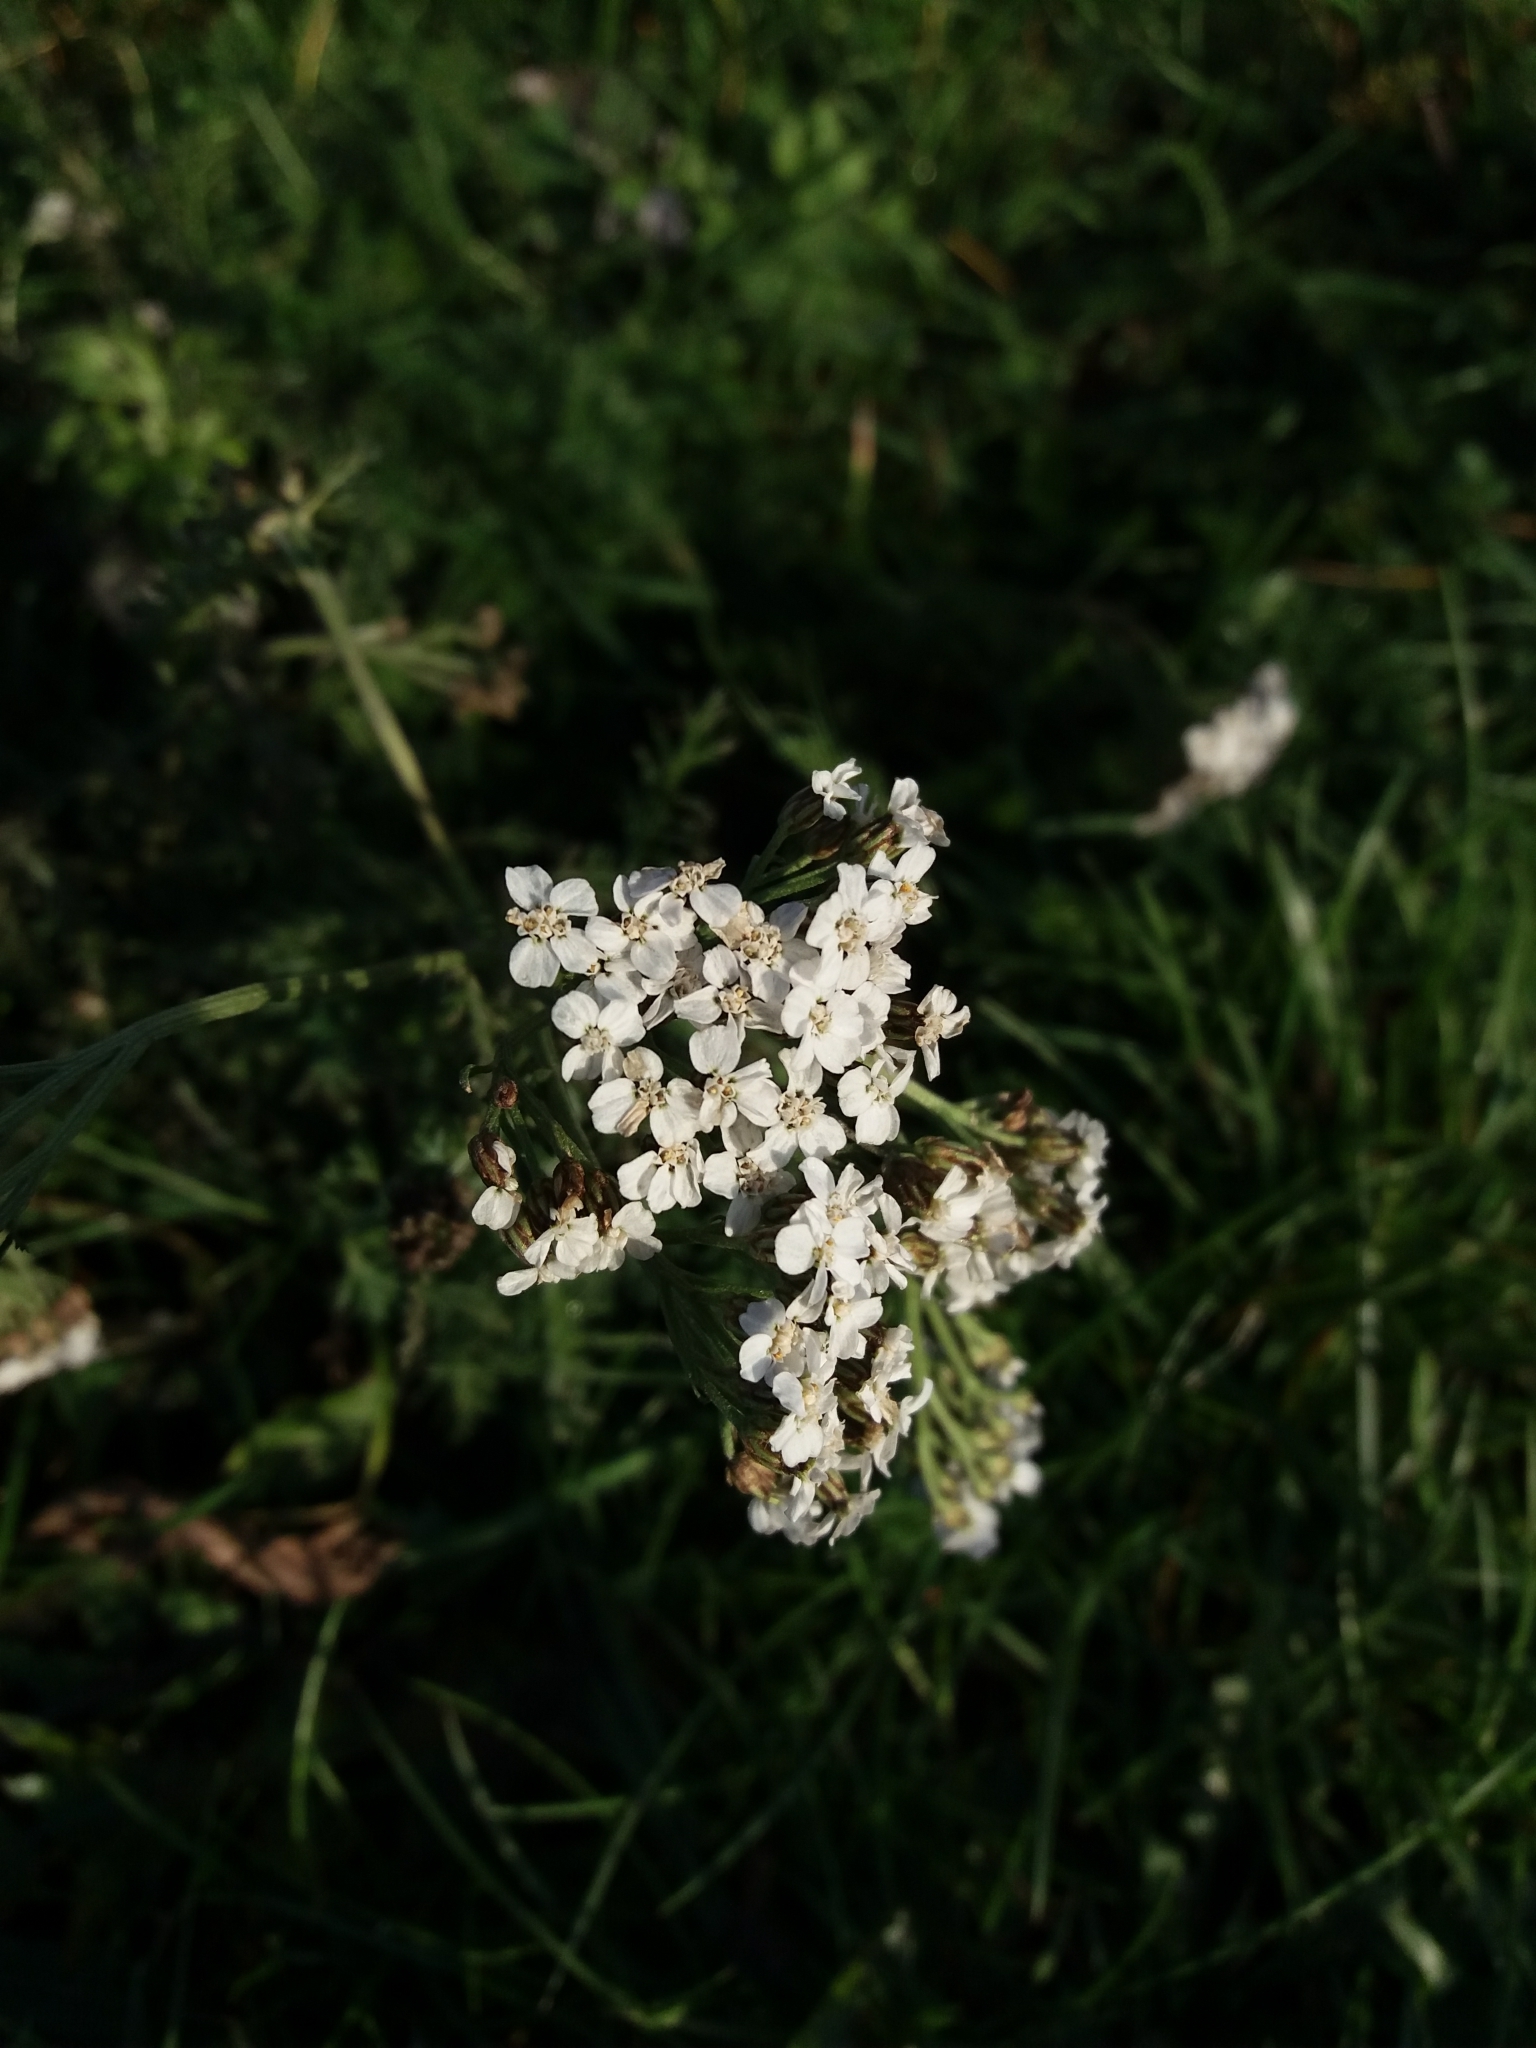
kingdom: Plantae
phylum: Tracheophyta
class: Magnoliopsida
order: Asterales
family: Asteraceae
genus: Achillea
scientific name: Achillea millefolium
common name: Yarrow
